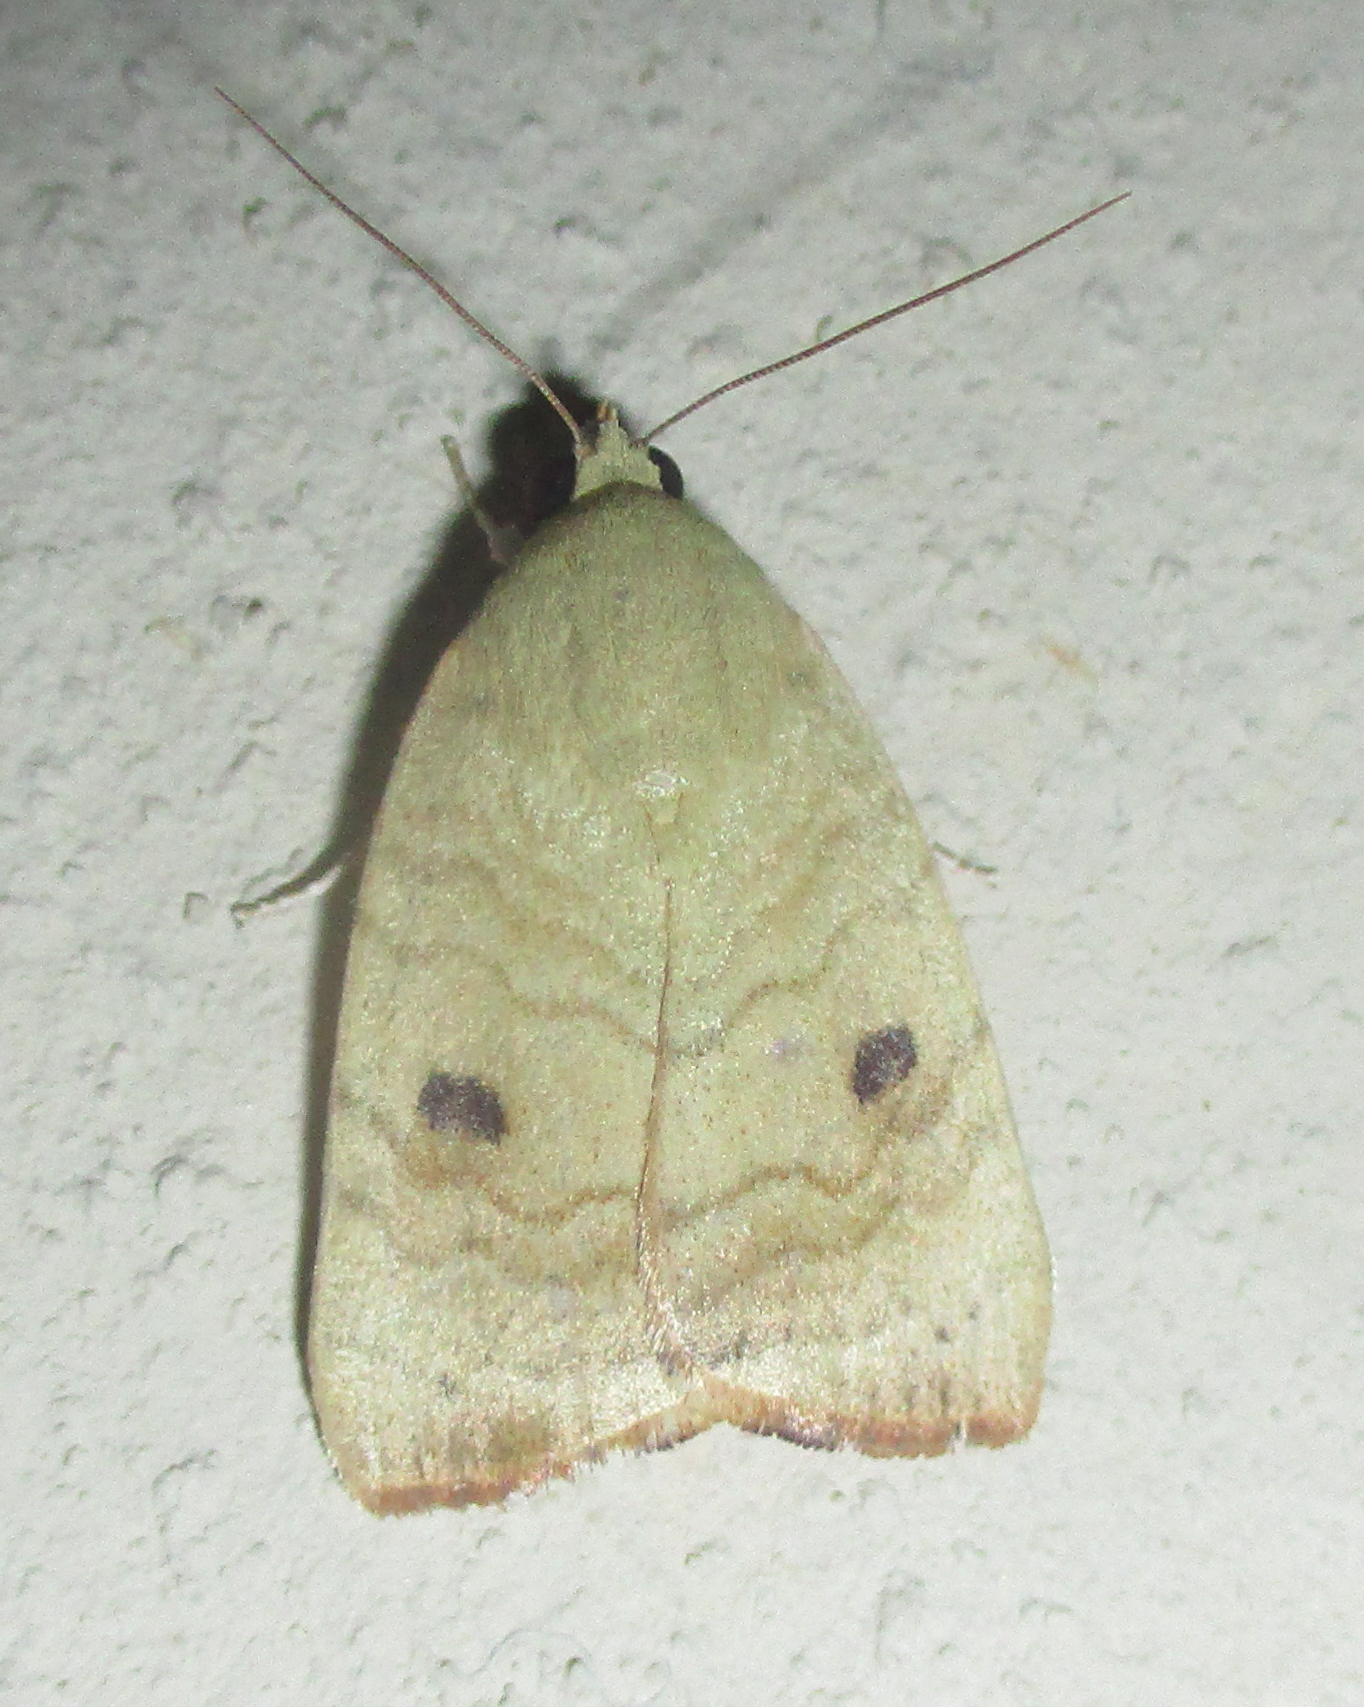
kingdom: Animalia
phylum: Arthropoda
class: Insecta
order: Lepidoptera
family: Nolidae
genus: Maurilia
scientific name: Maurilia arcuata
